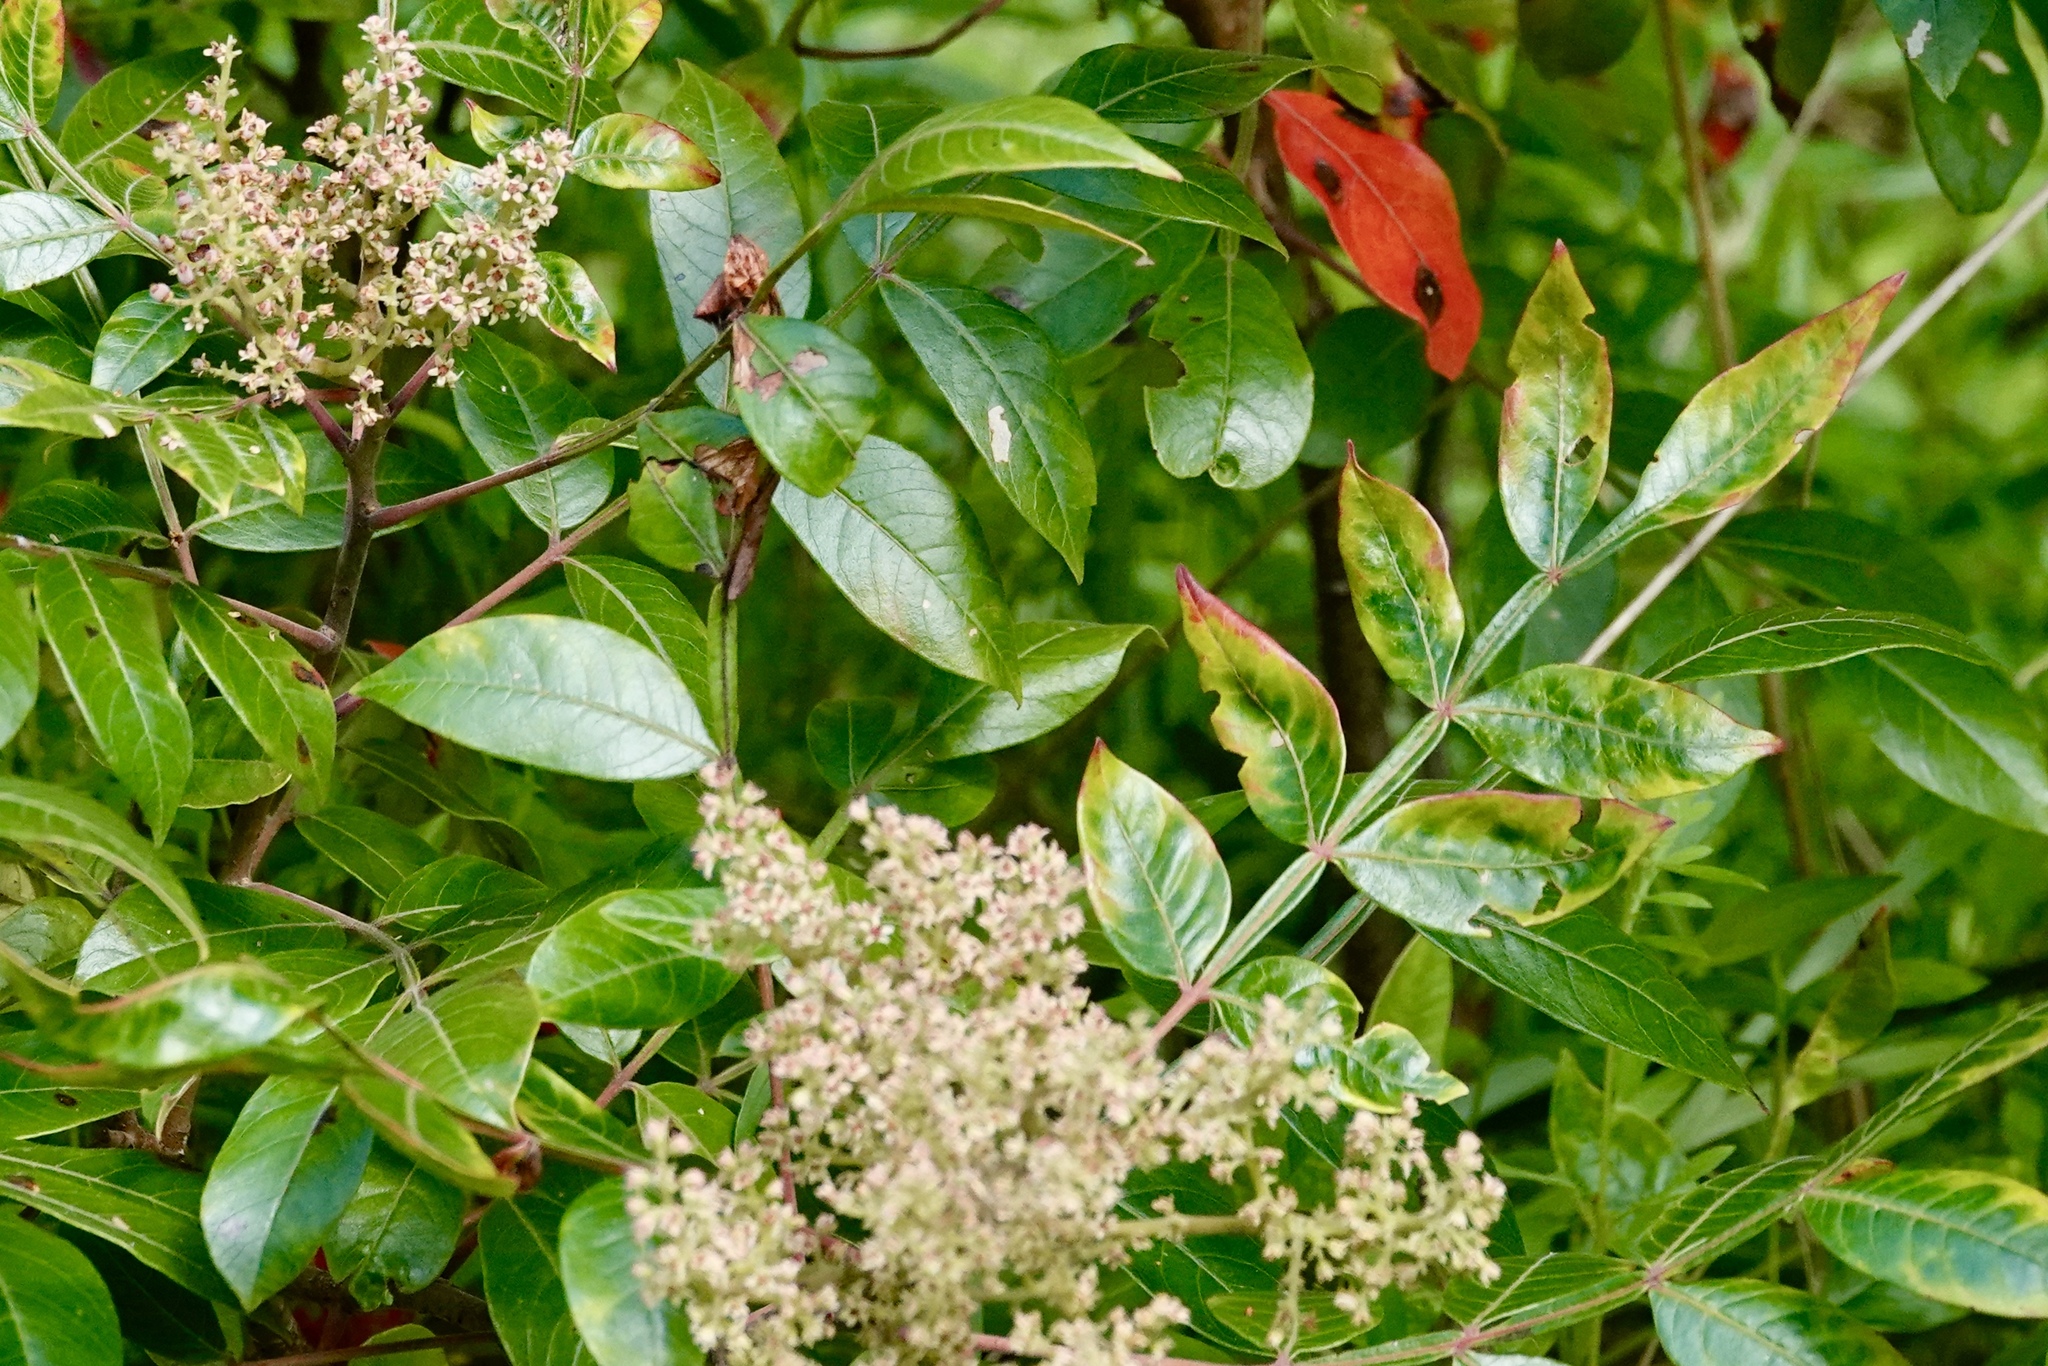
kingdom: Plantae
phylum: Tracheophyta
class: Magnoliopsida
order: Sapindales
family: Anacardiaceae
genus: Rhus
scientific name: Rhus copallina
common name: Shining sumac
